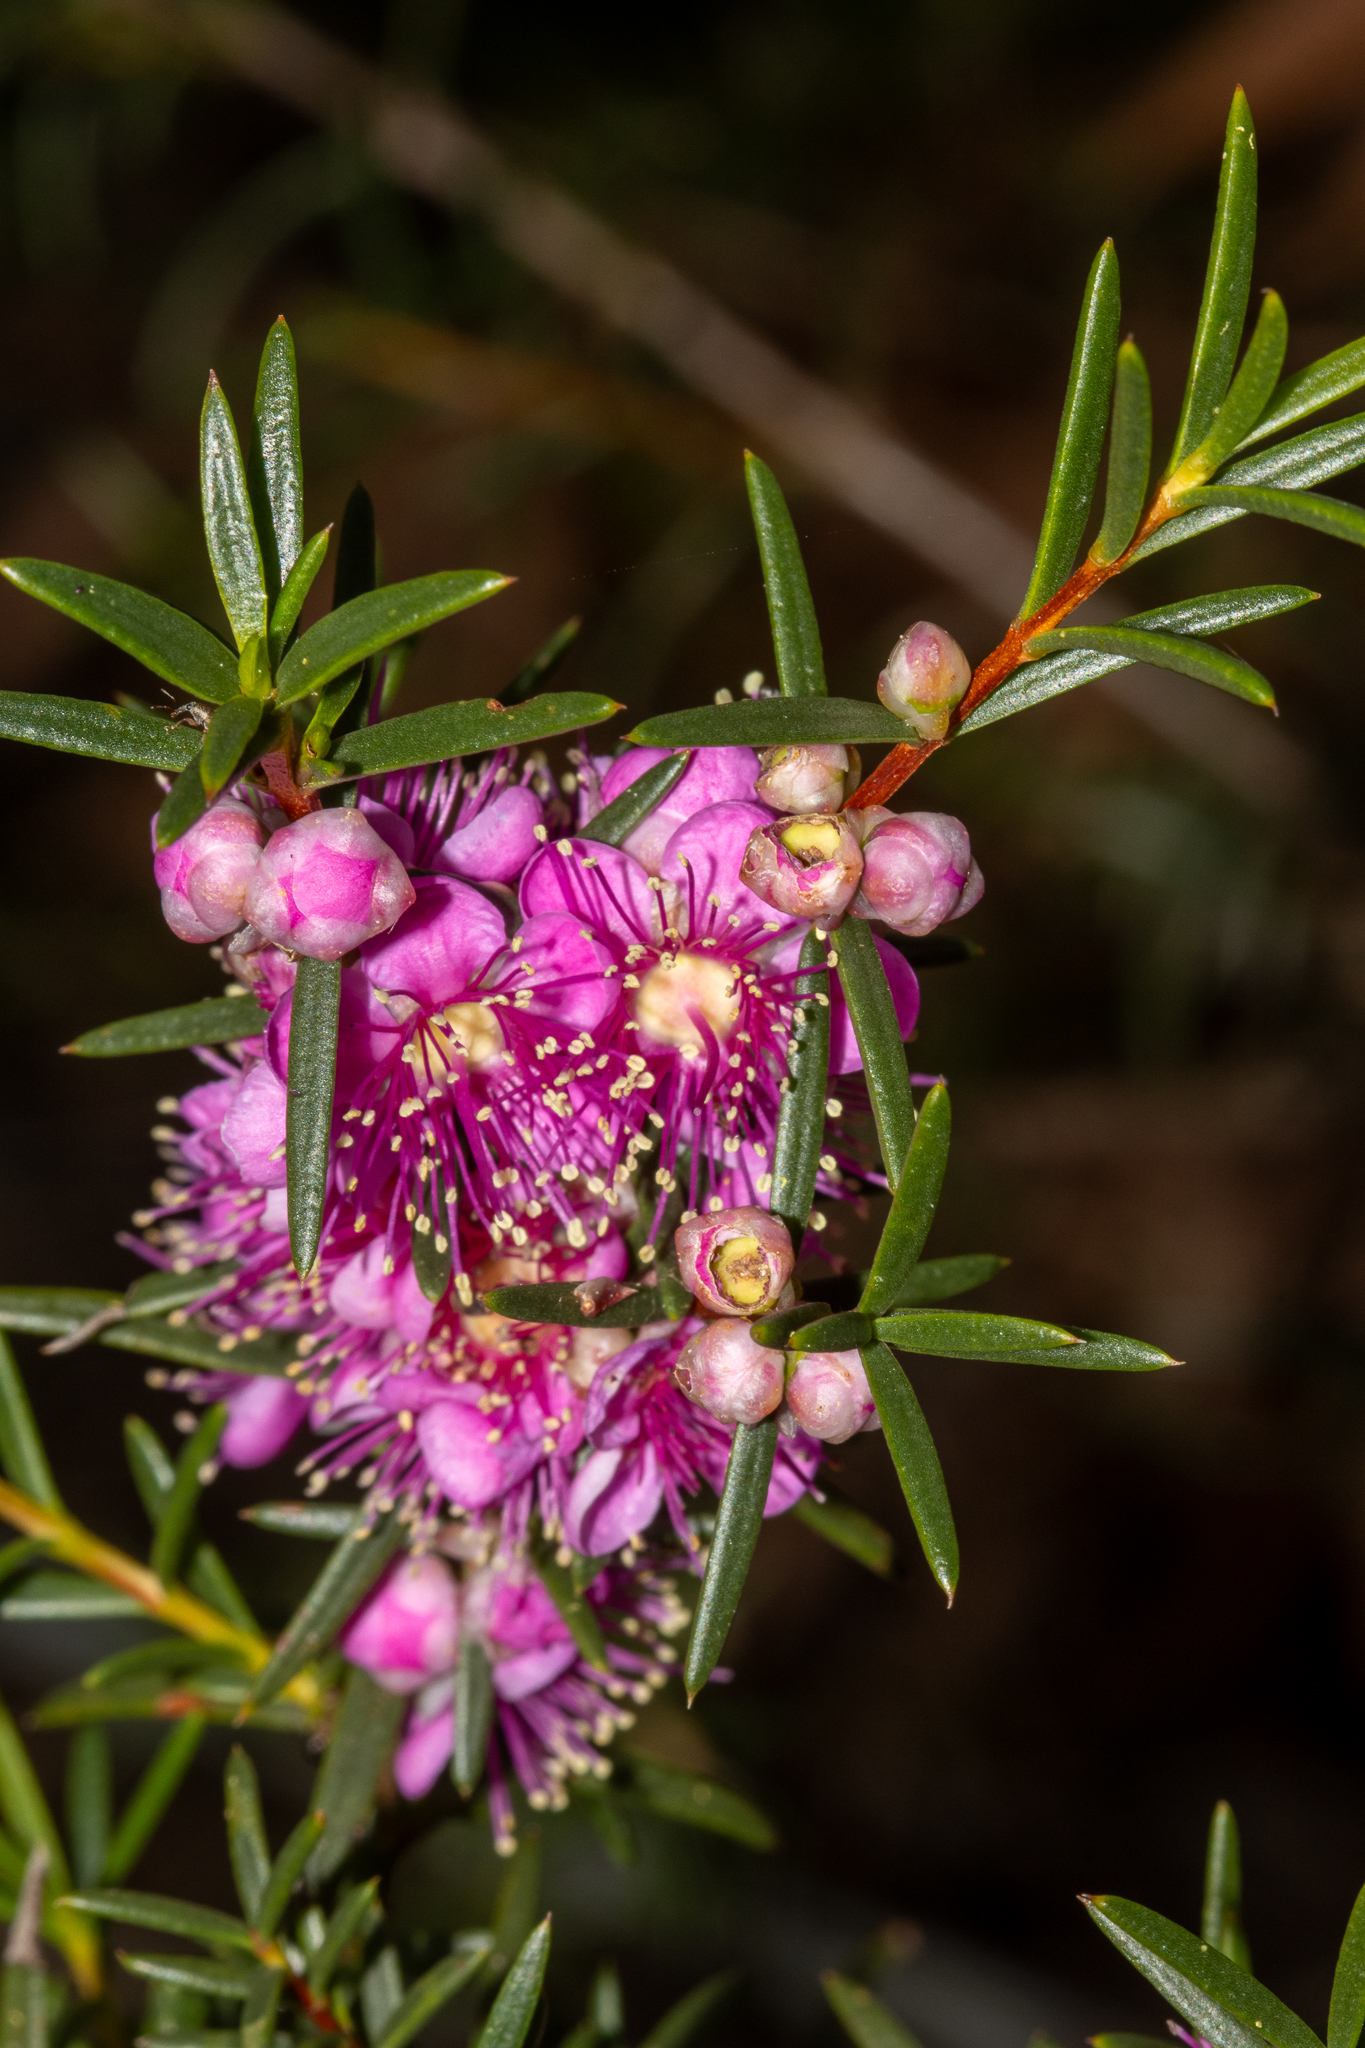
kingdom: Plantae
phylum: Tracheophyta
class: Magnoliopsida
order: Myrtales
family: Myrtaceae
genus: Hypocalymma
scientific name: Hypocalymma robustum
